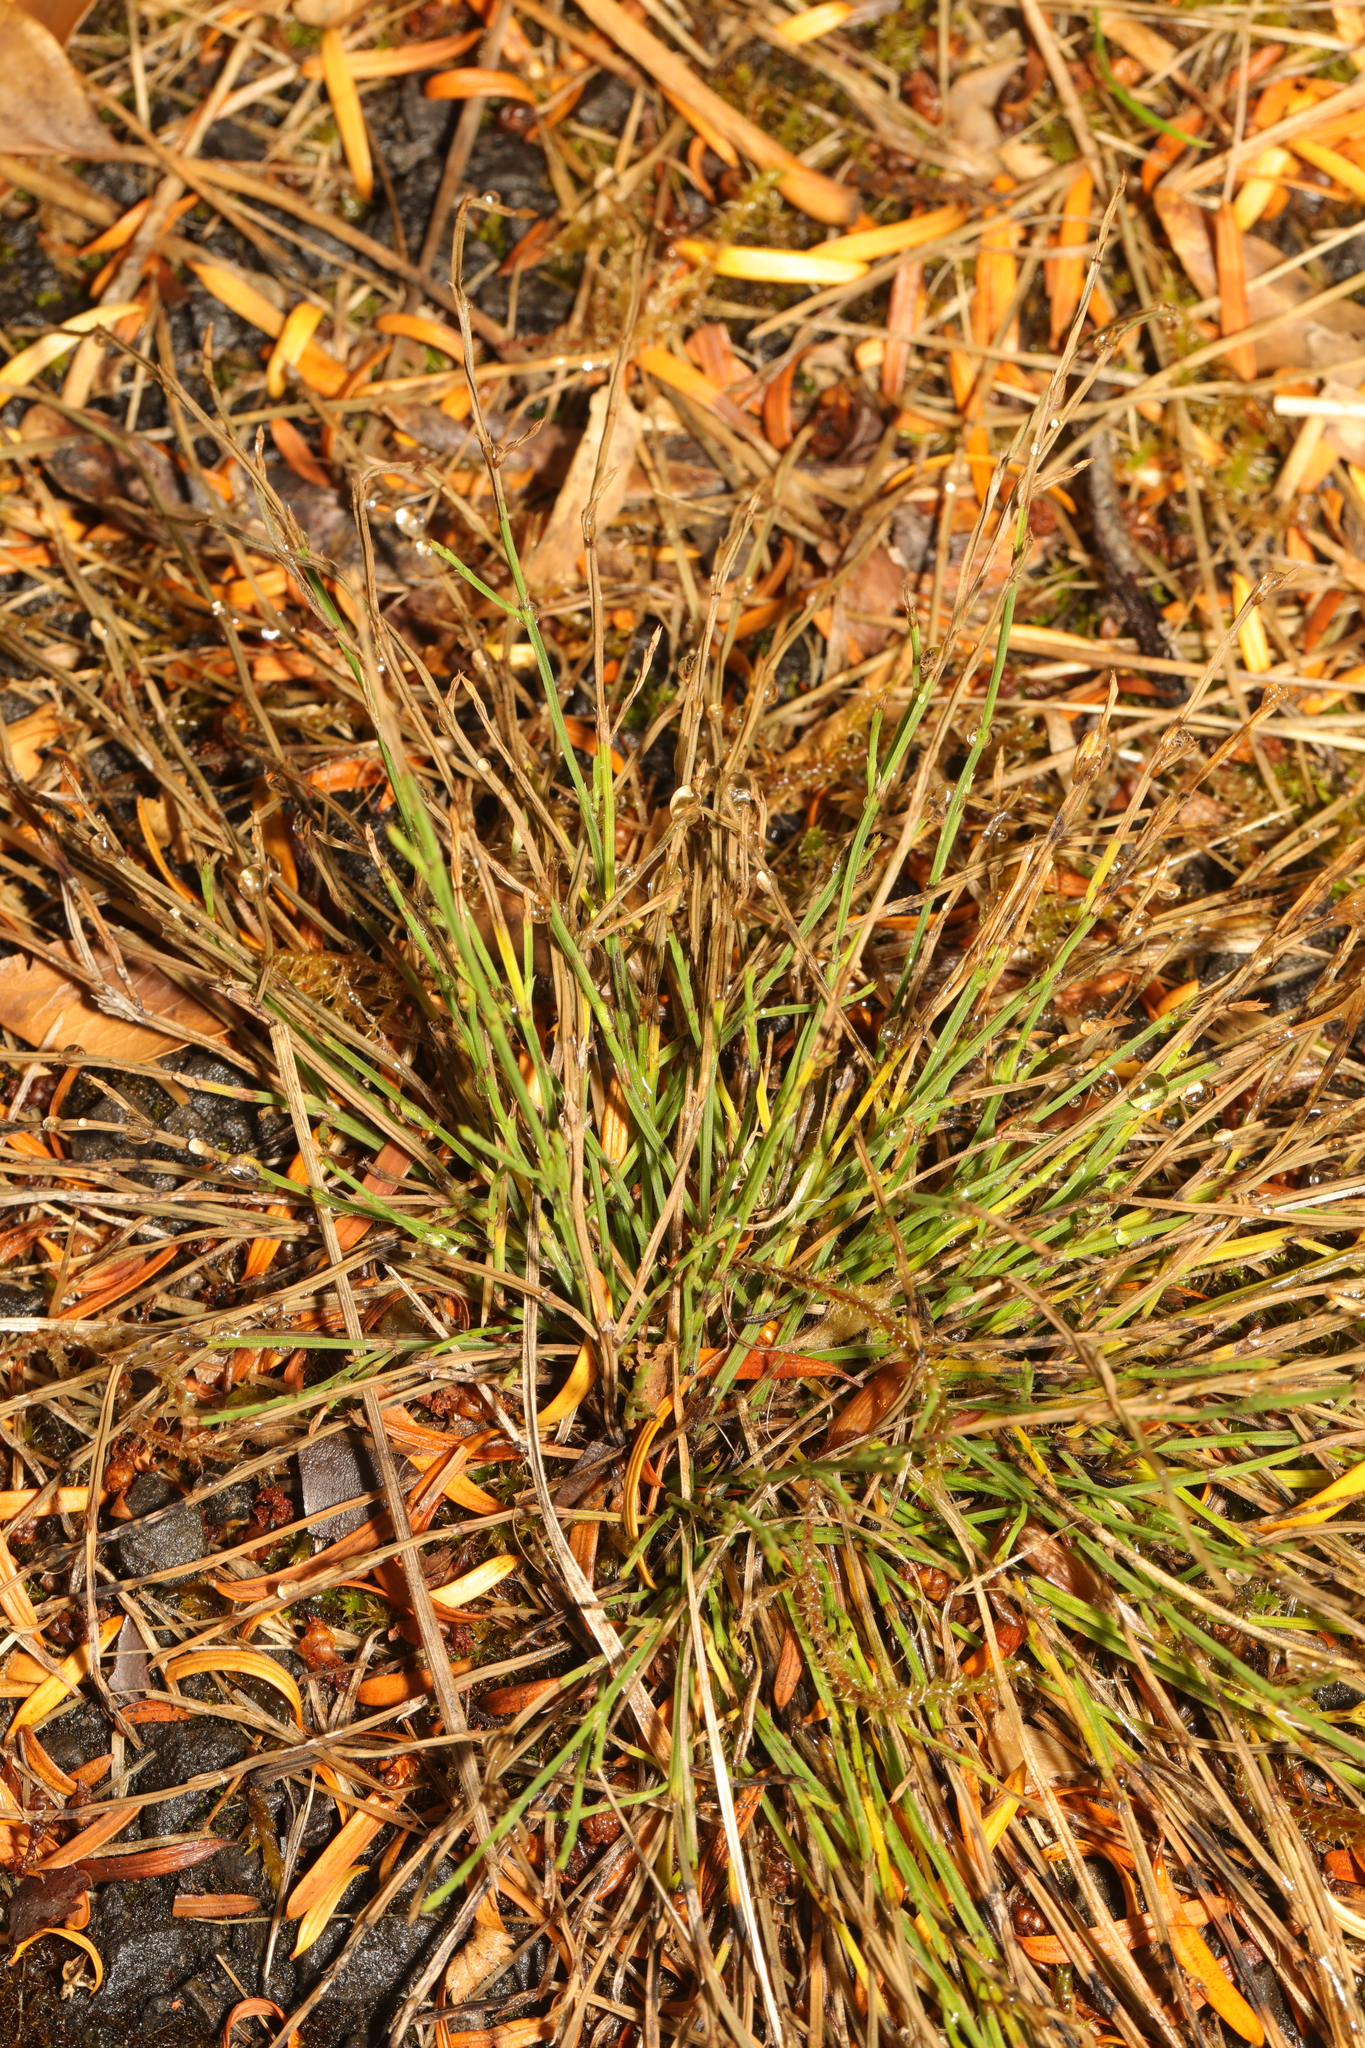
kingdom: Plantae
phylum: Tracheophyta
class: Polypodiopsida
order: Equisetales
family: Equisetaceae
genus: Equisetum
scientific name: Equisetum arvense
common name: Field horsetail
